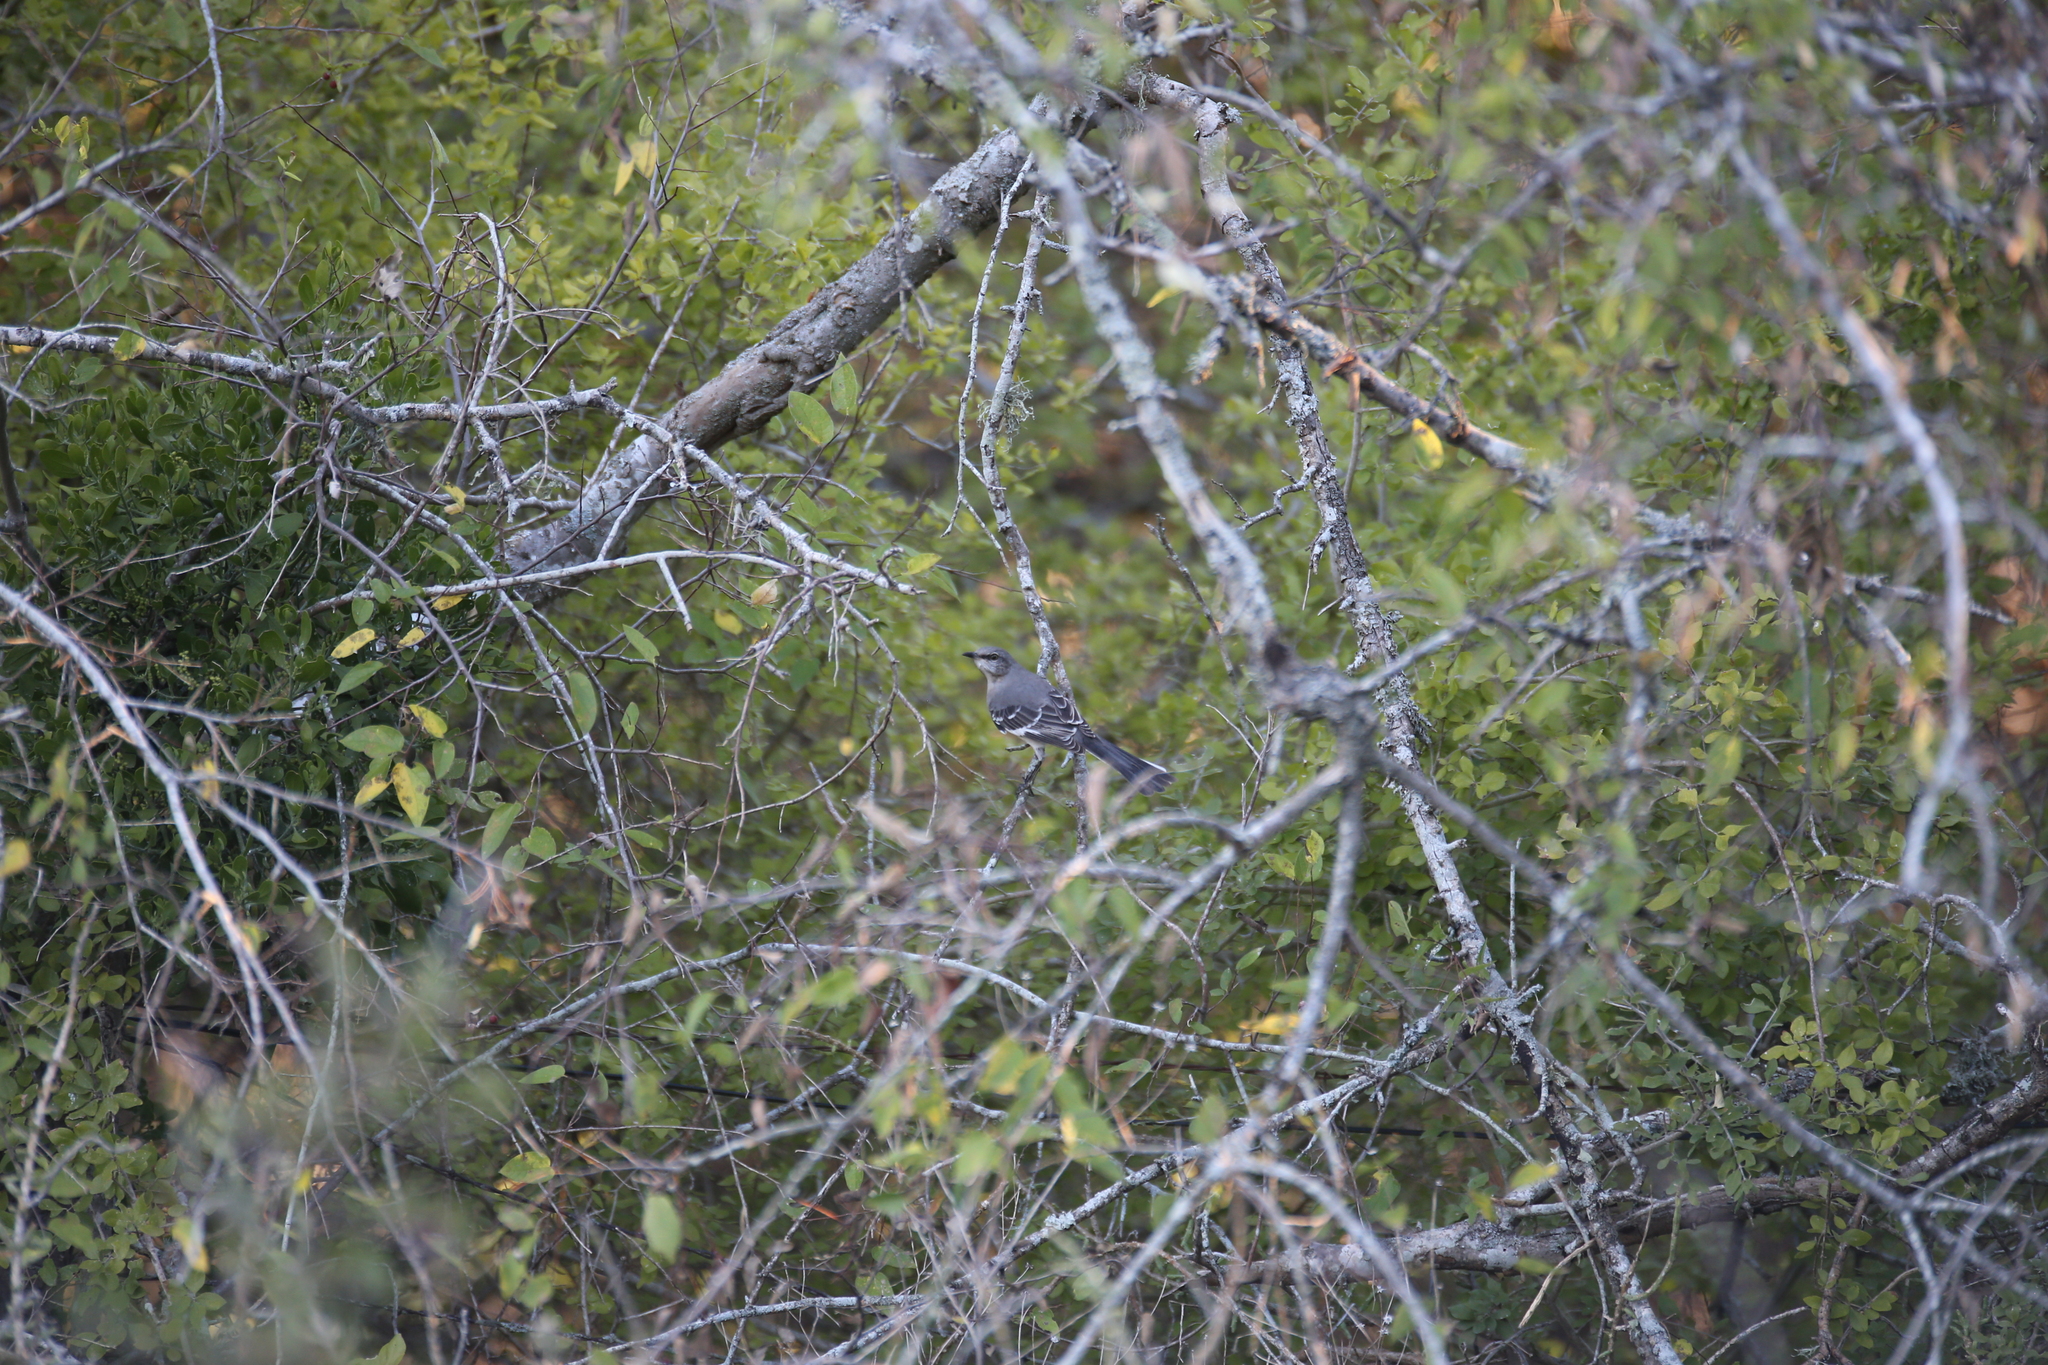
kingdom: Animalia
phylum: Chordata
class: Aves
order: Passeriformes
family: Mimidae
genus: Mimus
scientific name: Mimus polyglottos
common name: Northern mockingbird
